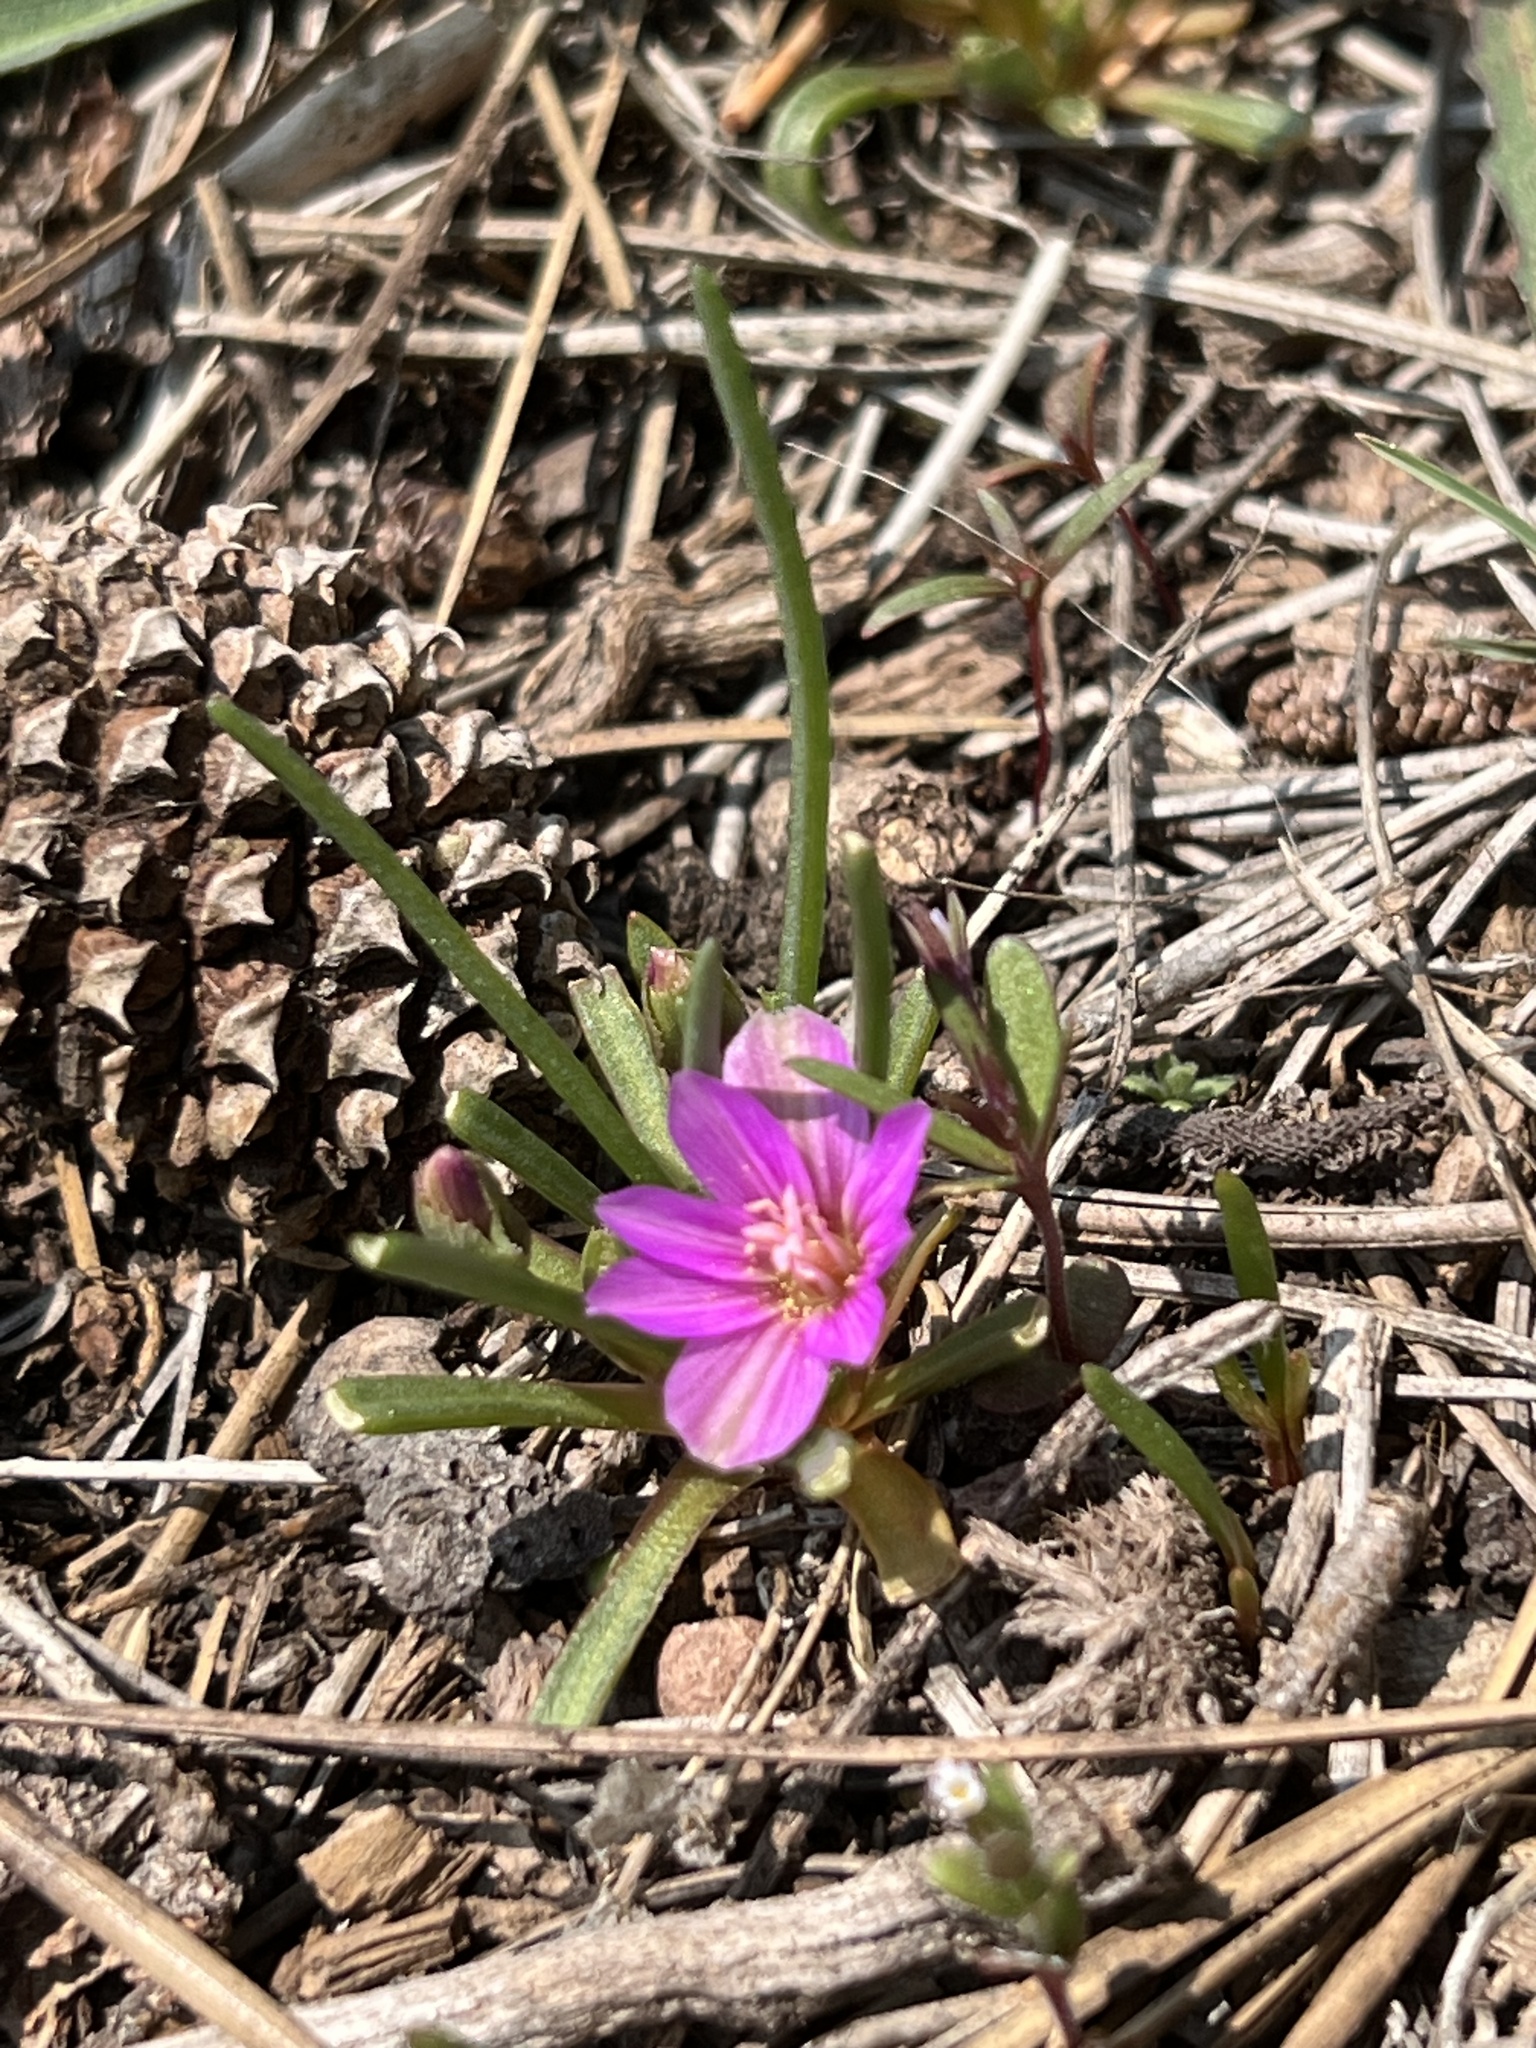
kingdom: Plantae
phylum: Tracheophyta
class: Magnoliopsida
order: Caryophyllales
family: Montiaceae
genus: Lewisia
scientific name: Lewisia pygmaea
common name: Alpine bitterroot
